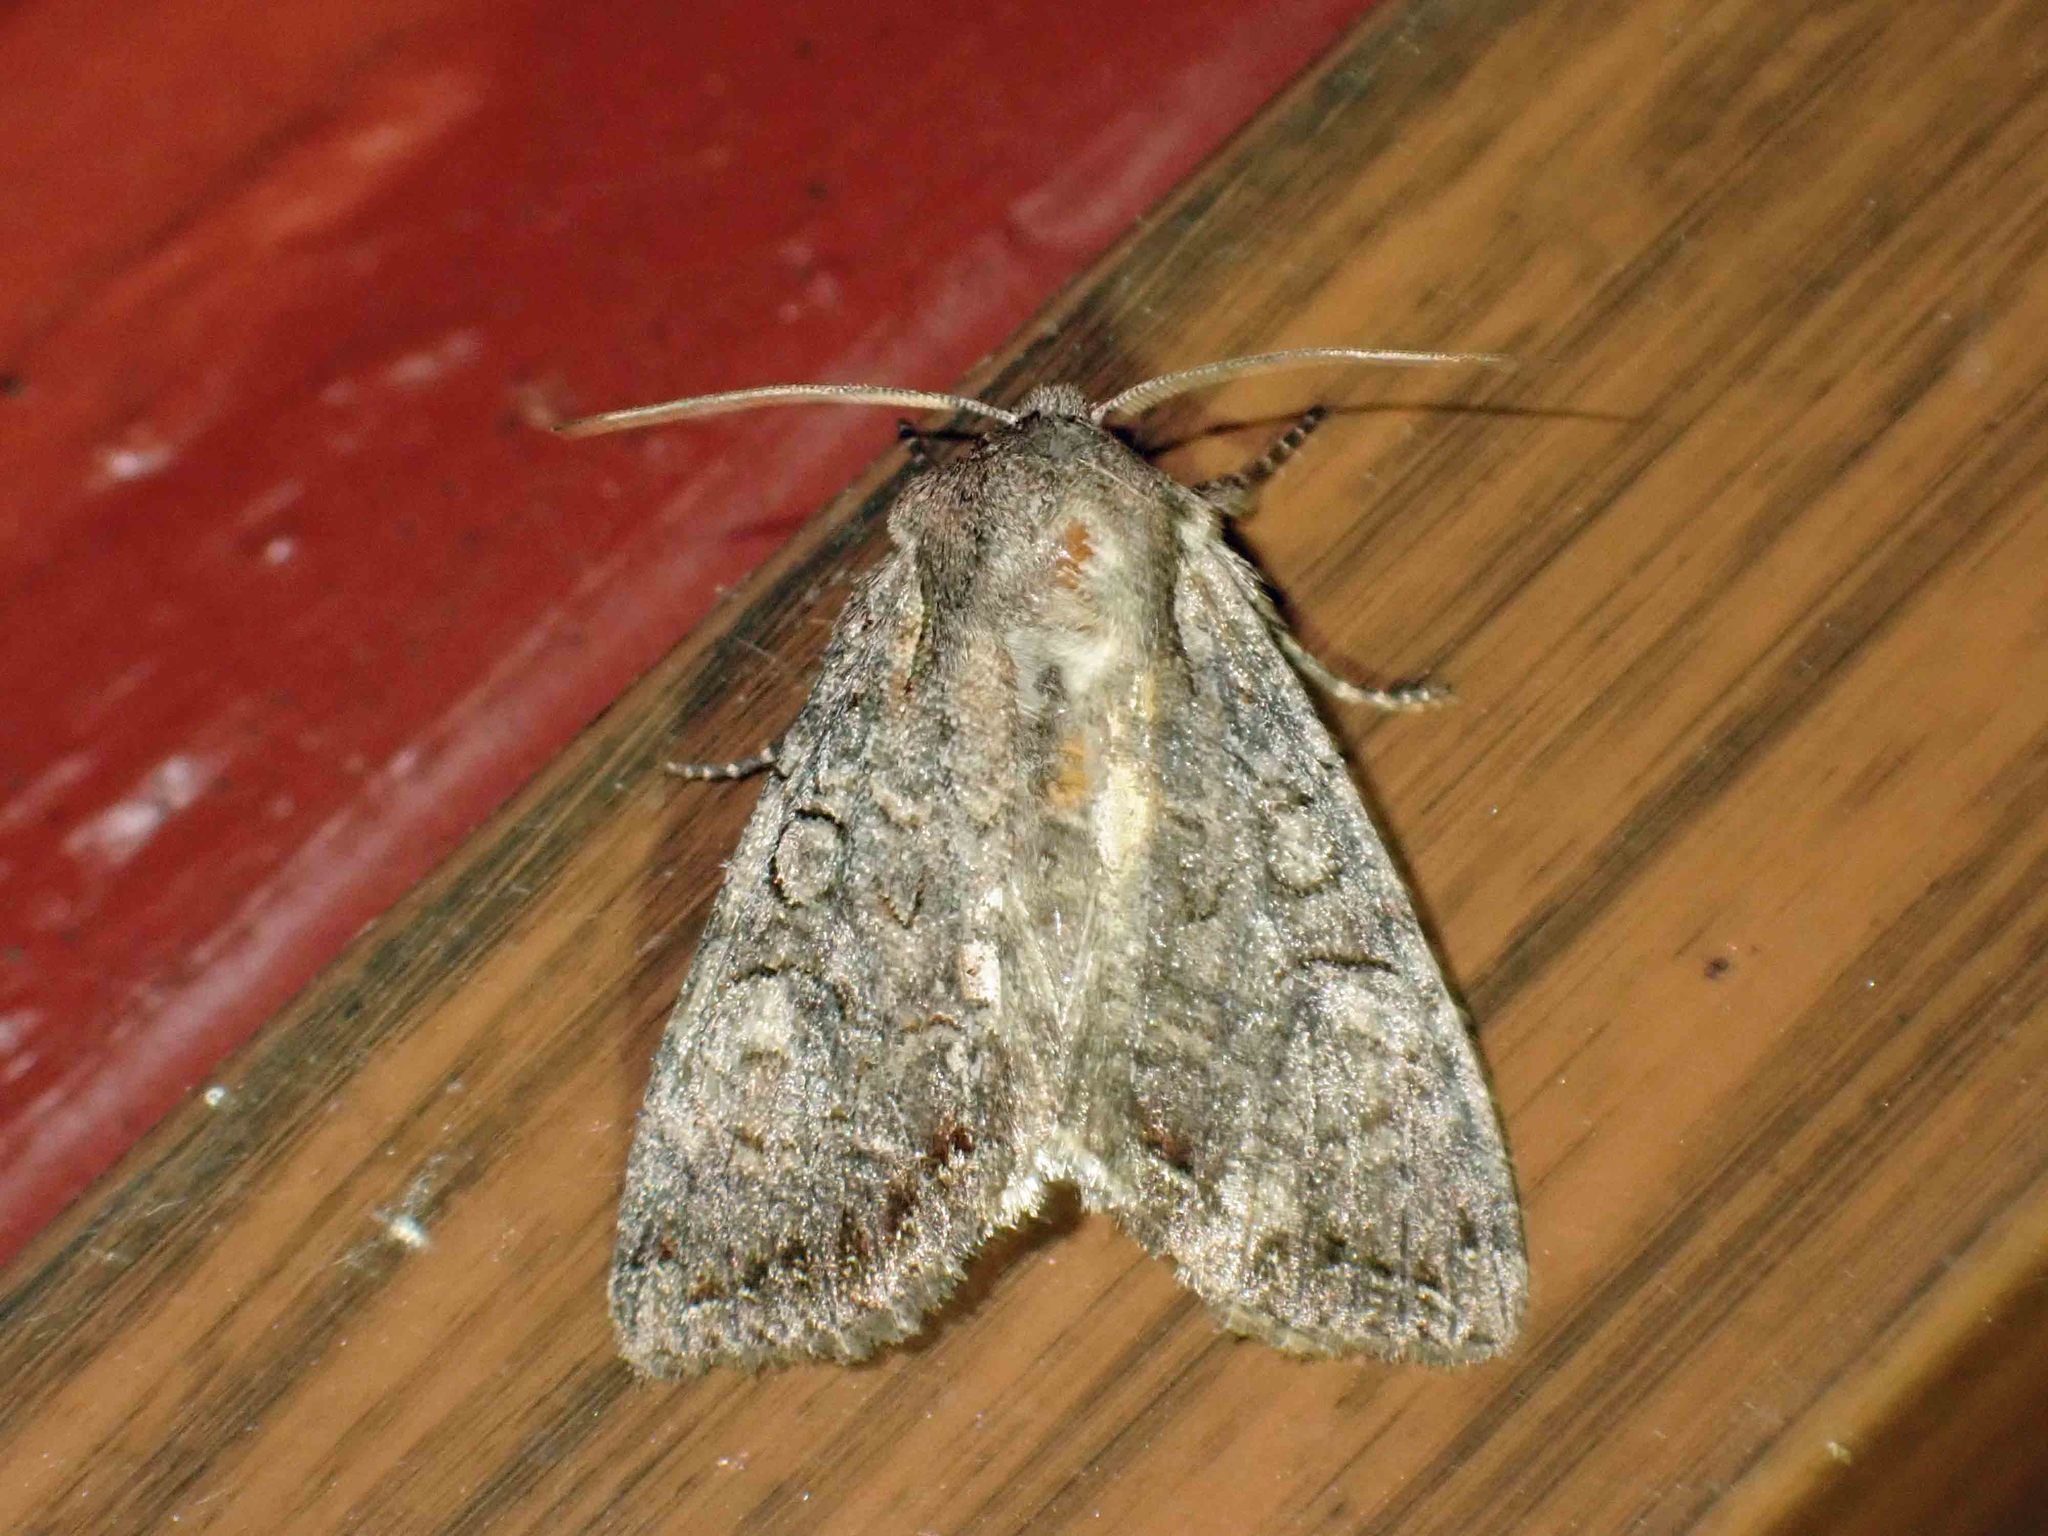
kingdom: Animalia
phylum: Arthropoda
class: Insecta
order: Lepidoptera
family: Noctuidae
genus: Anarta
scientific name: Anarta trifolii
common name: Clover cutworm moth
